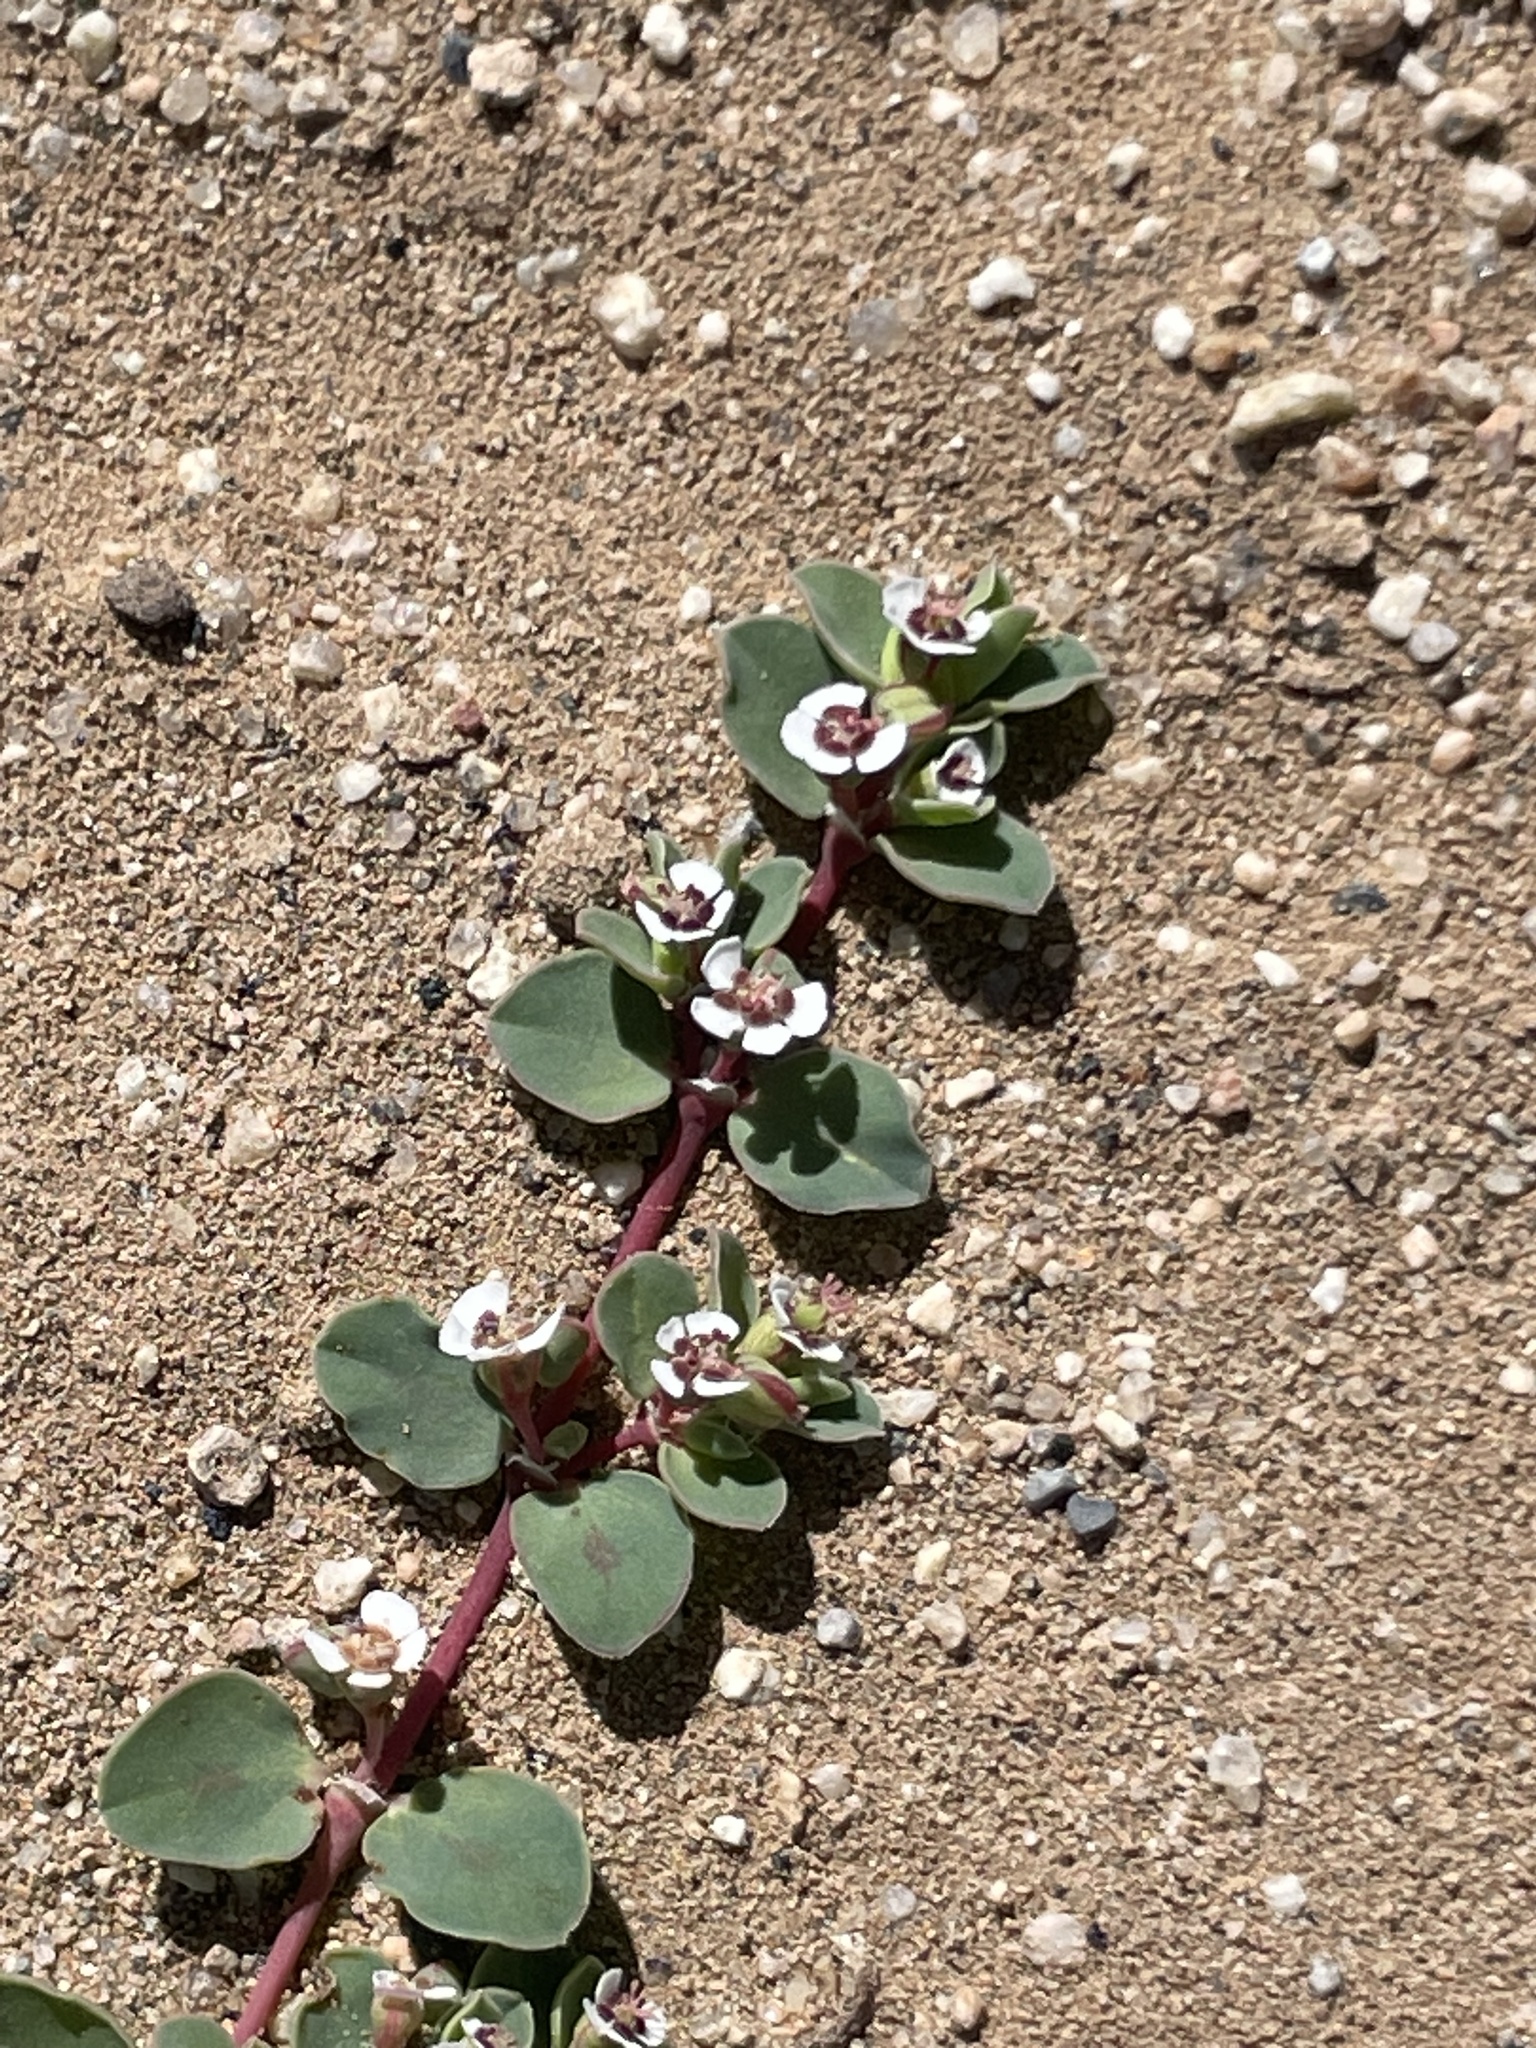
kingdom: Plantae
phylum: Tracheophyta
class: Magnoliopsida
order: Malpighiales
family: Euphorbiaceae
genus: Euphorbia
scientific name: Euphorbia albomarginata
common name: Whitemargin sandmat
